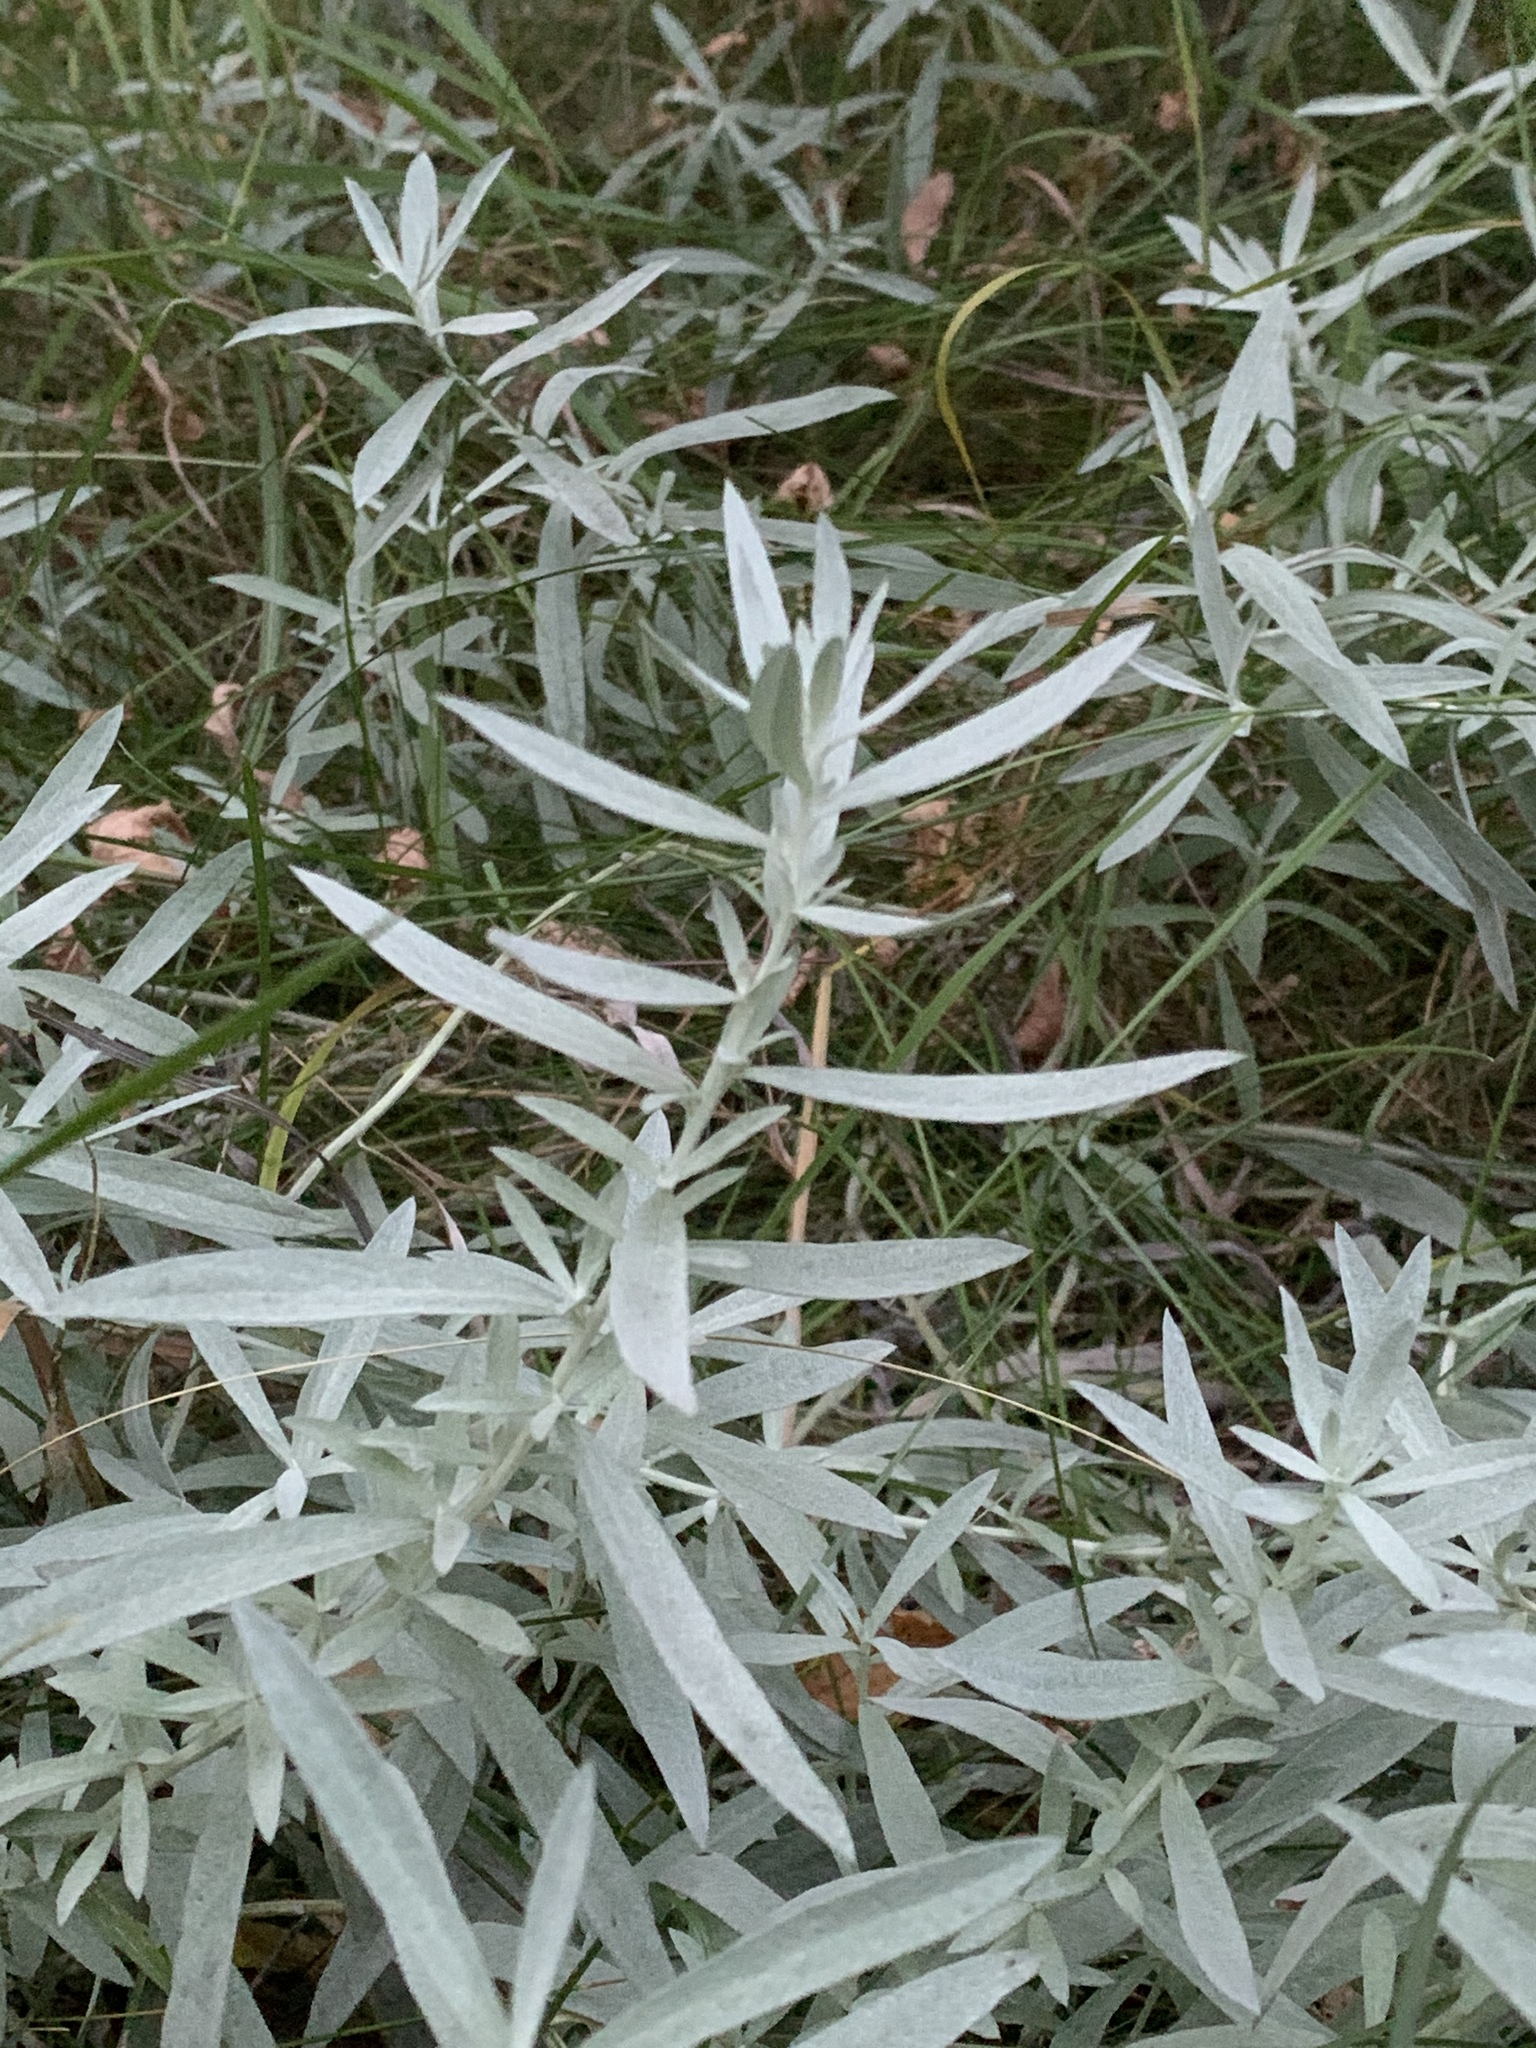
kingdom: Plantae
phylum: Tracheophyta
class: Magnoliopsida
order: Asterales
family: Asteraceae
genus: Artemisia
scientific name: Artemisia ludoviciana
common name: Western mugwort
